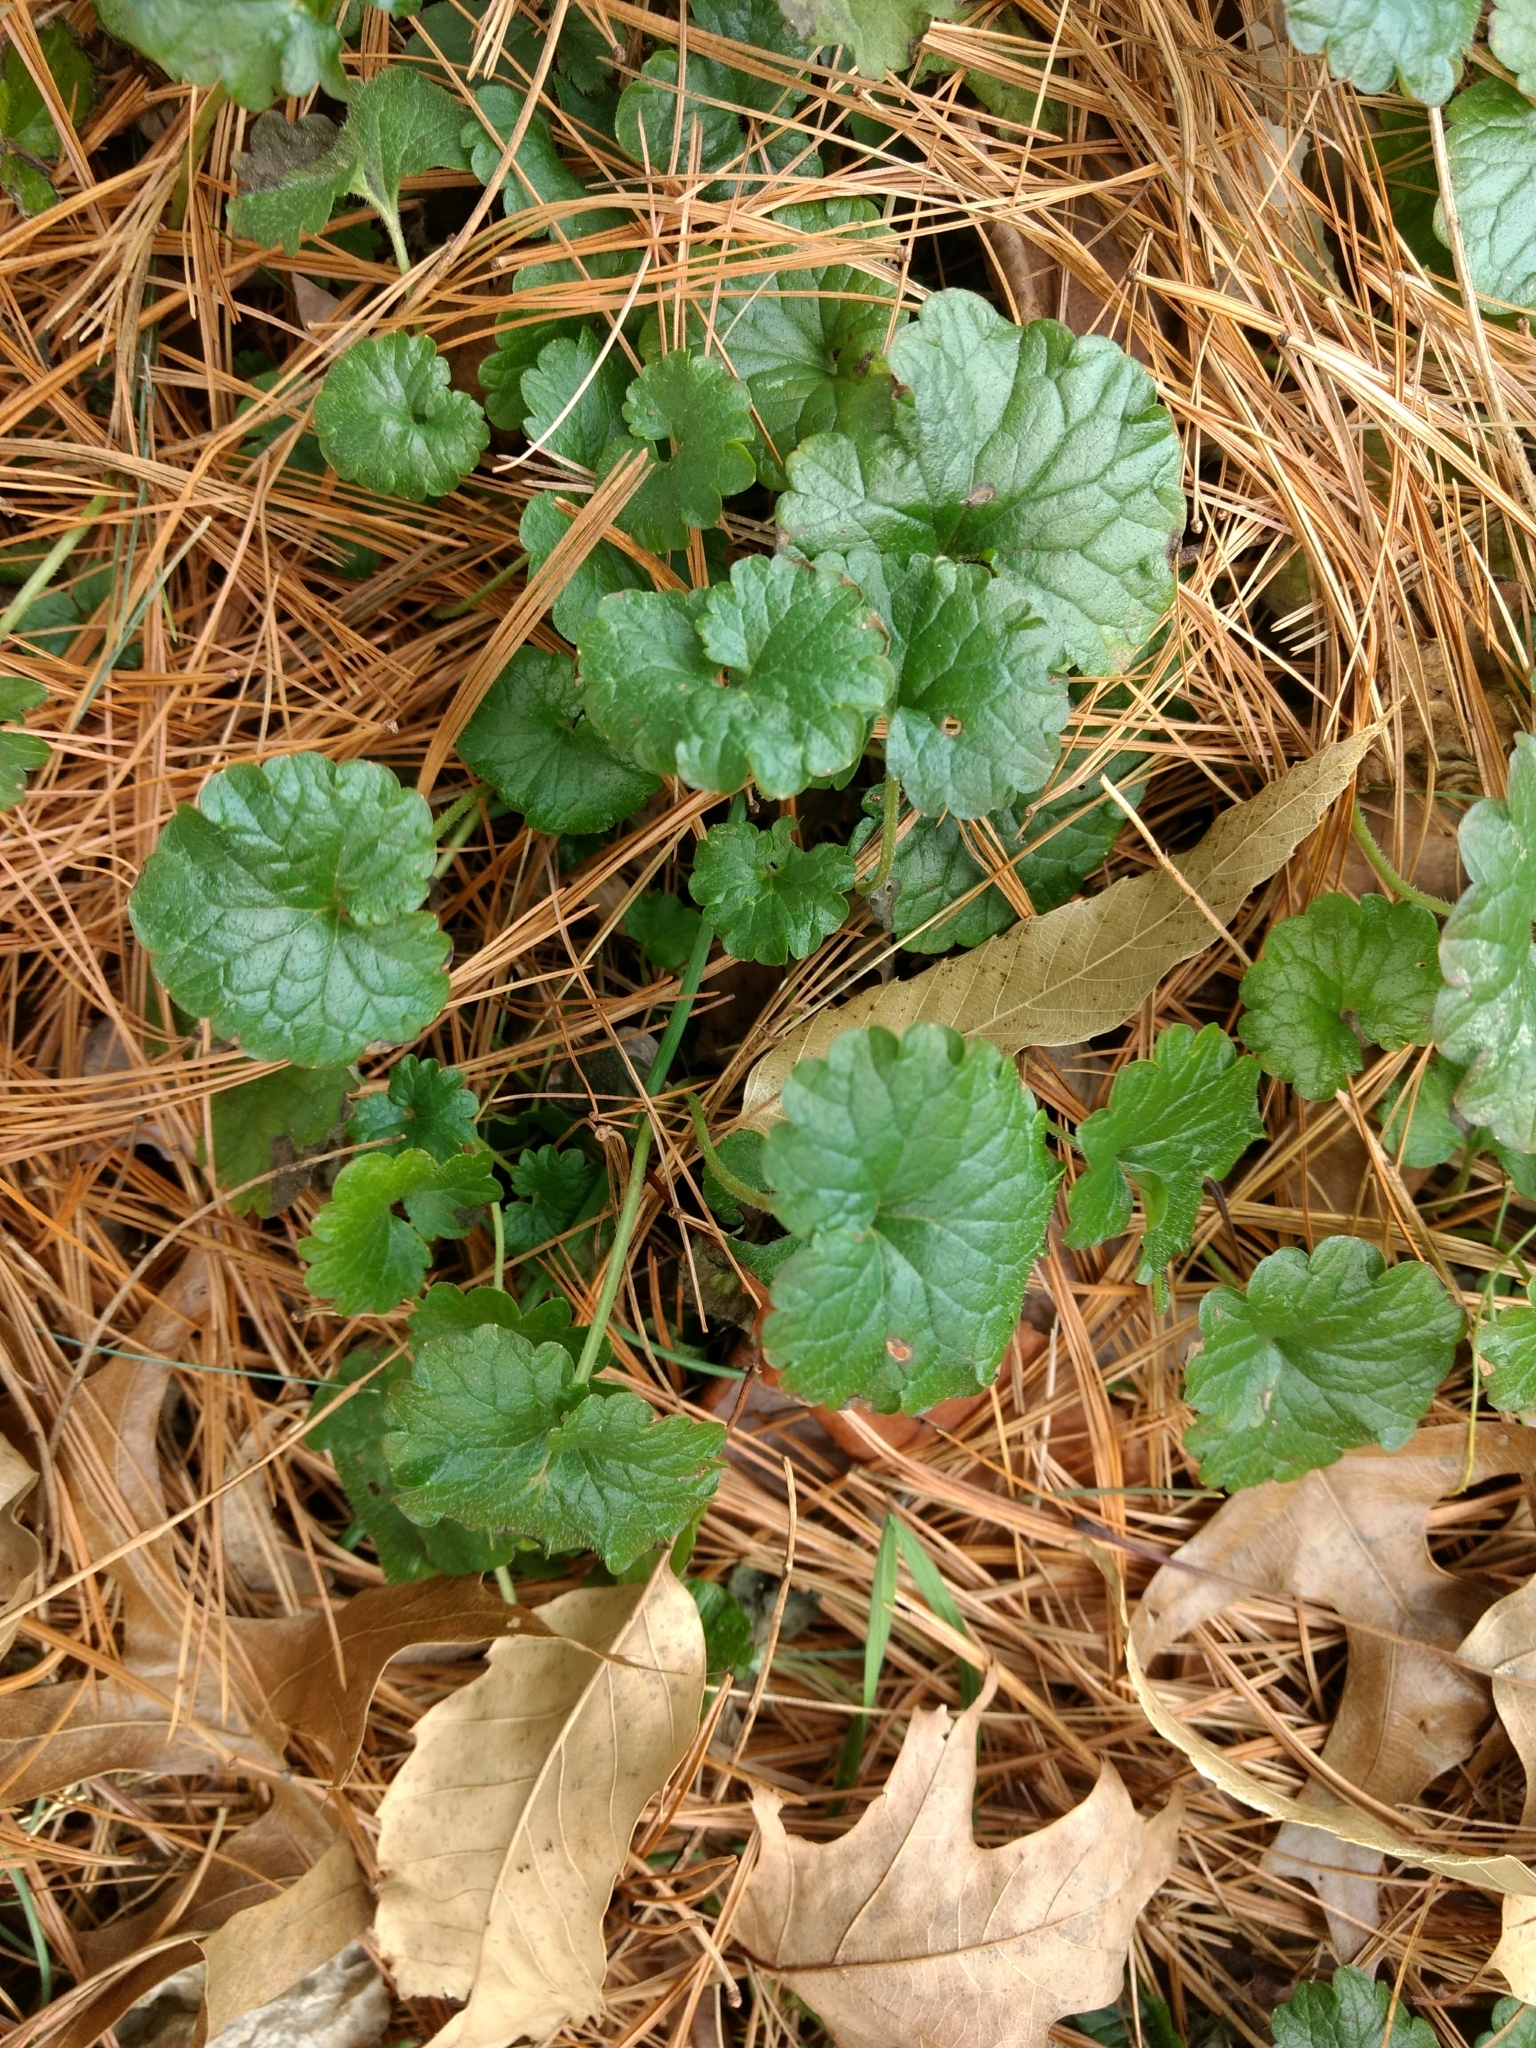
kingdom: Plantae
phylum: Tracheophyta
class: Magnoliopsida
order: Lamiales
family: Lamiaceae
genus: Glechoma
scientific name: Glechoma hederacea
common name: Ground ivy
